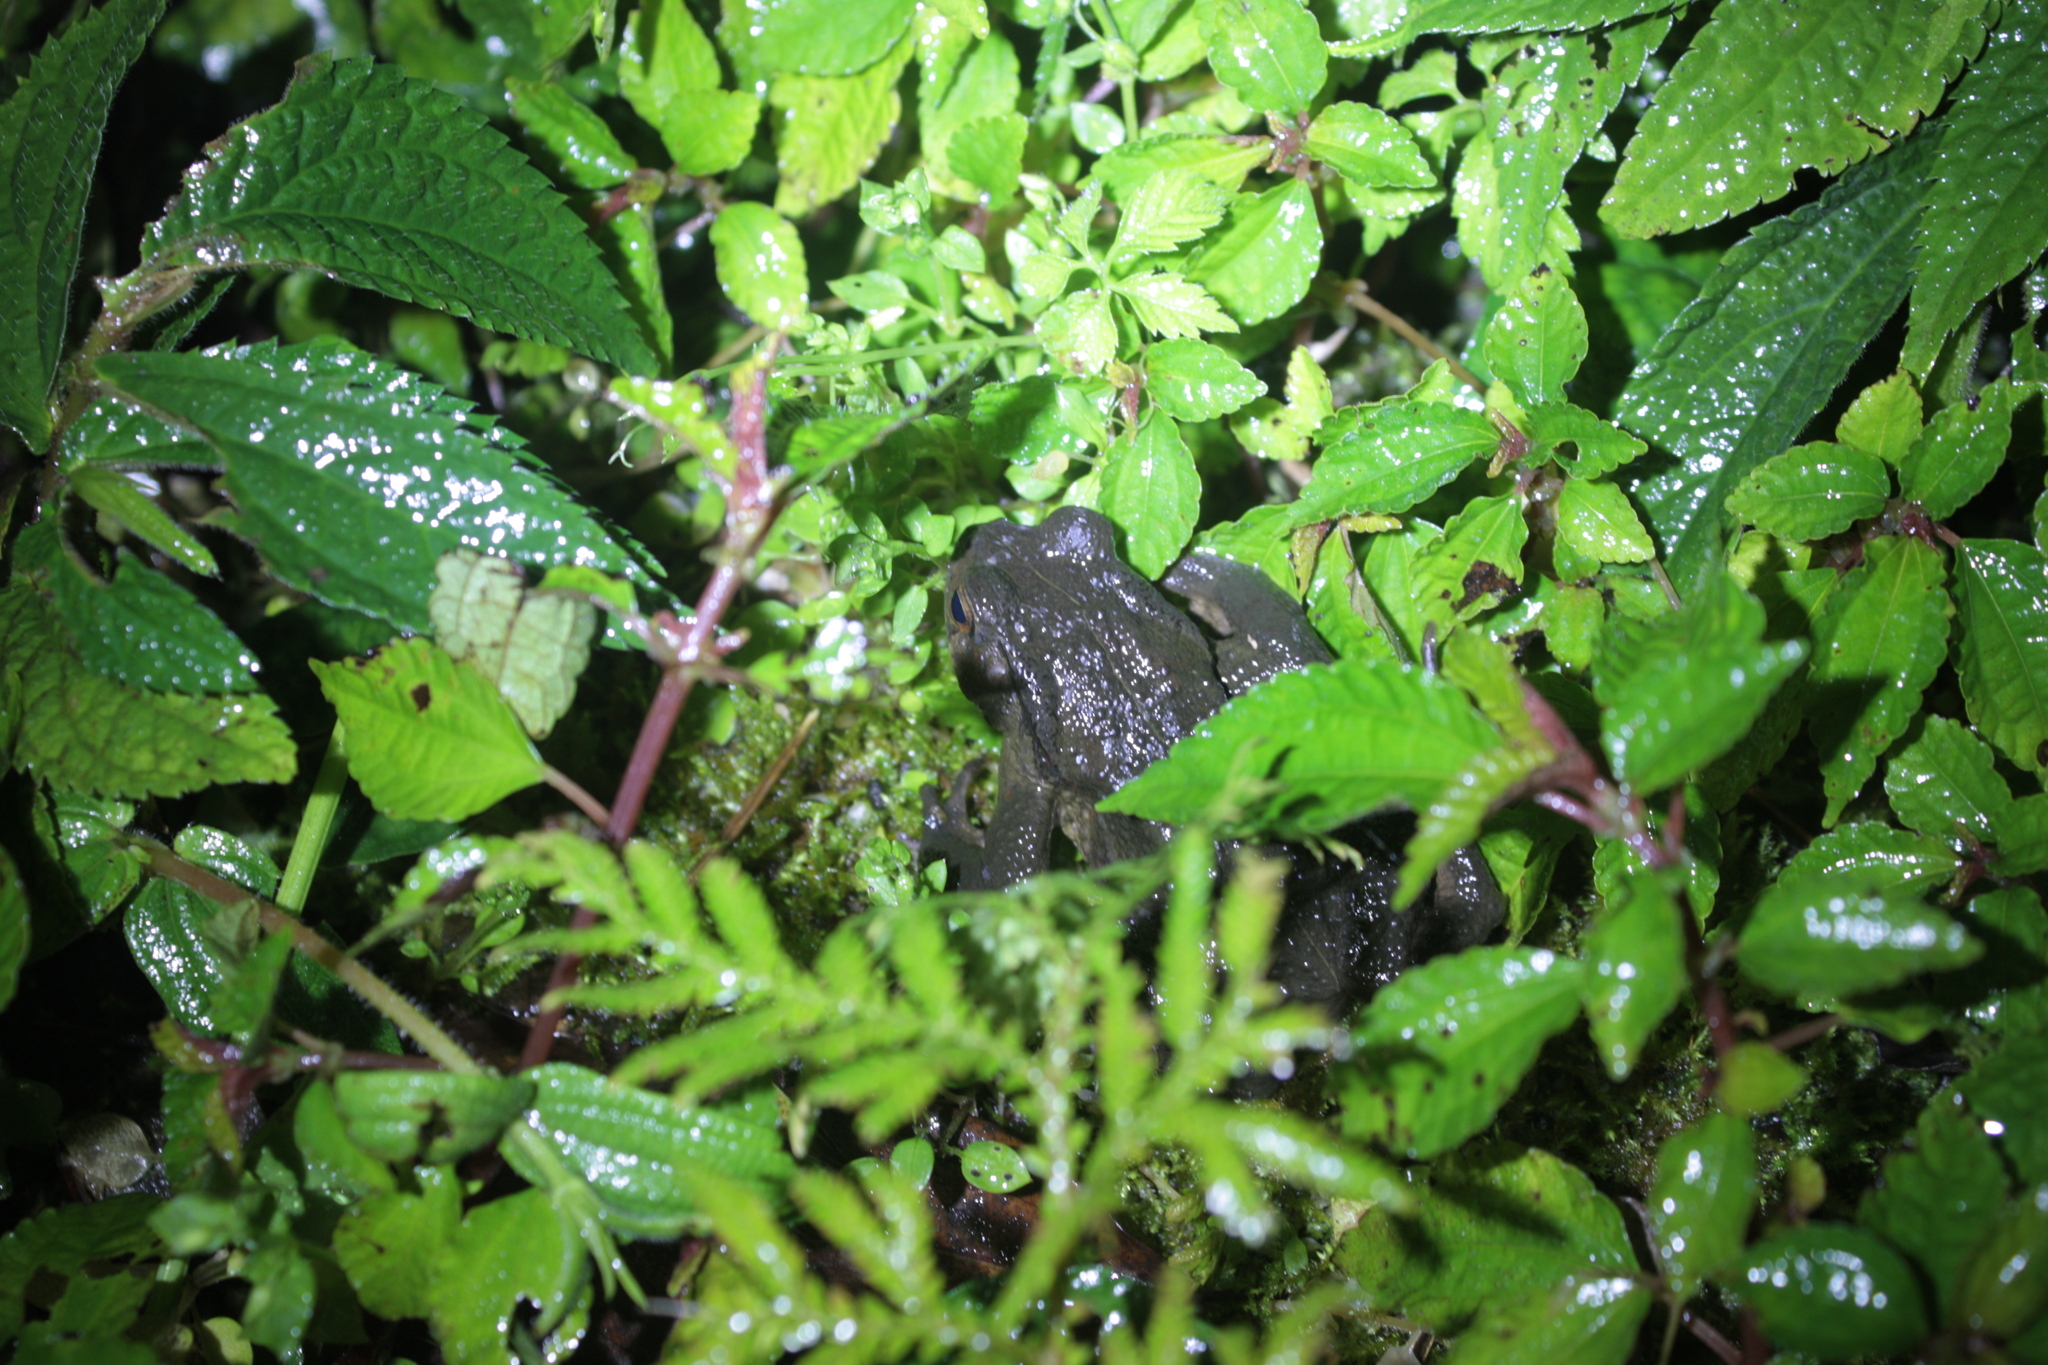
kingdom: Animalia
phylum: Chordata
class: Amphibia
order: Anura
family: Bufonidae
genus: Bufo
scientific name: Bufo bankorensis
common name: Bankor toad
